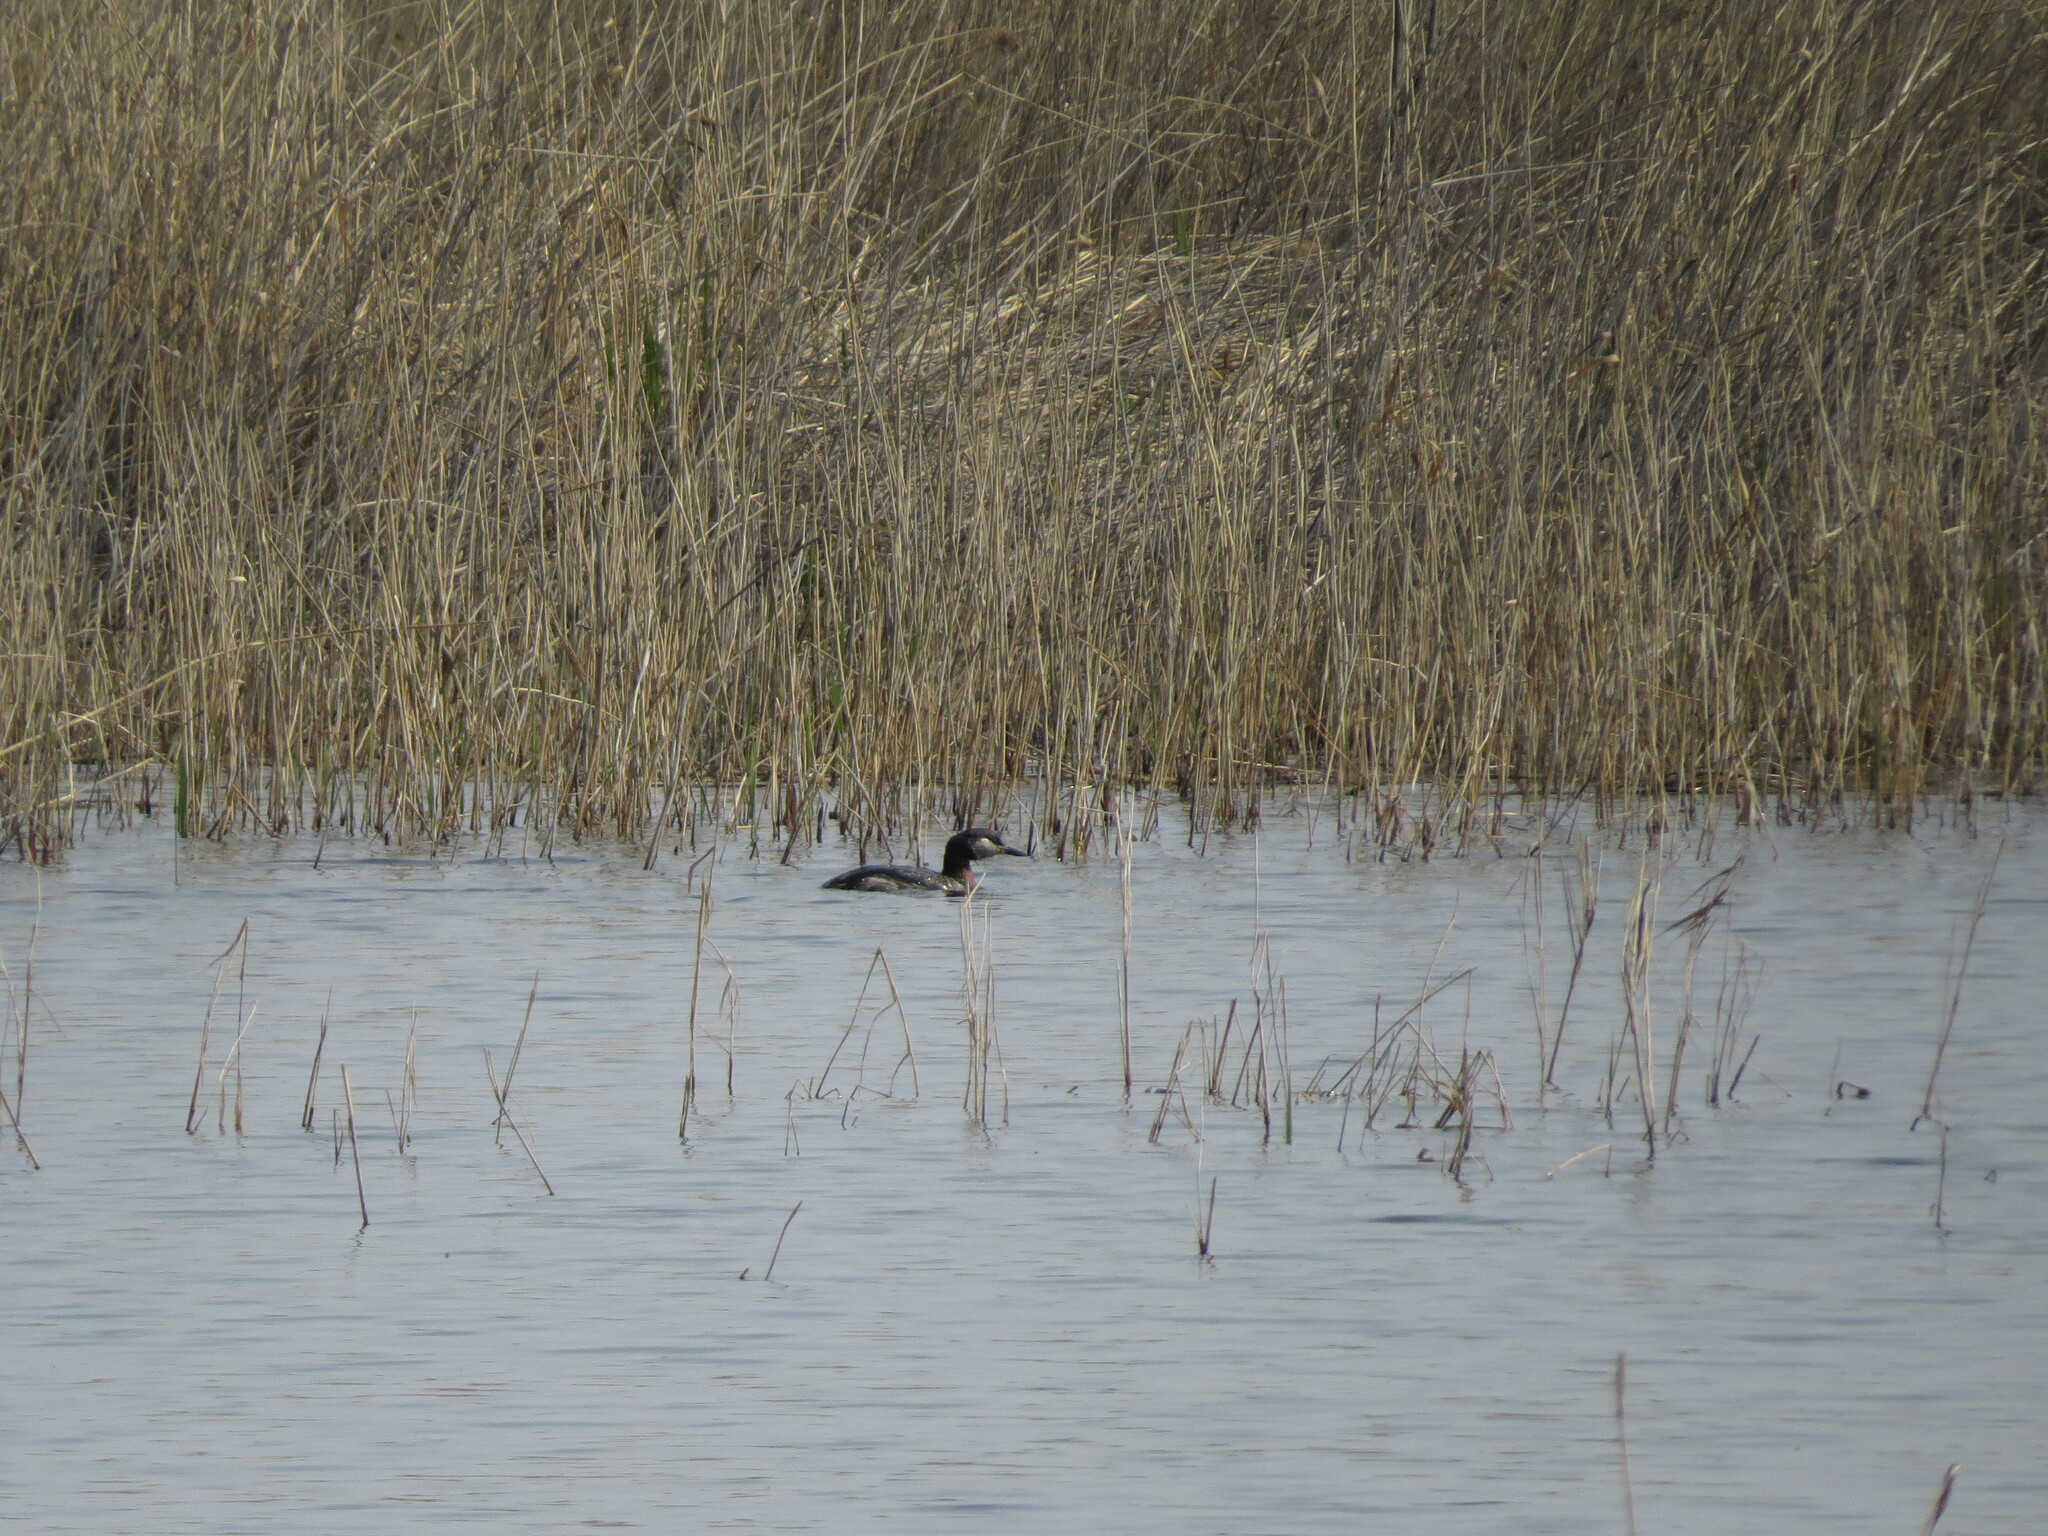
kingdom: Animalia
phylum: Chordata
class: Aves
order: Podicipediformes
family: Podicipedidae
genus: Podiceps
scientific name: Podiceps grisegena
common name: Red-necked grebe
